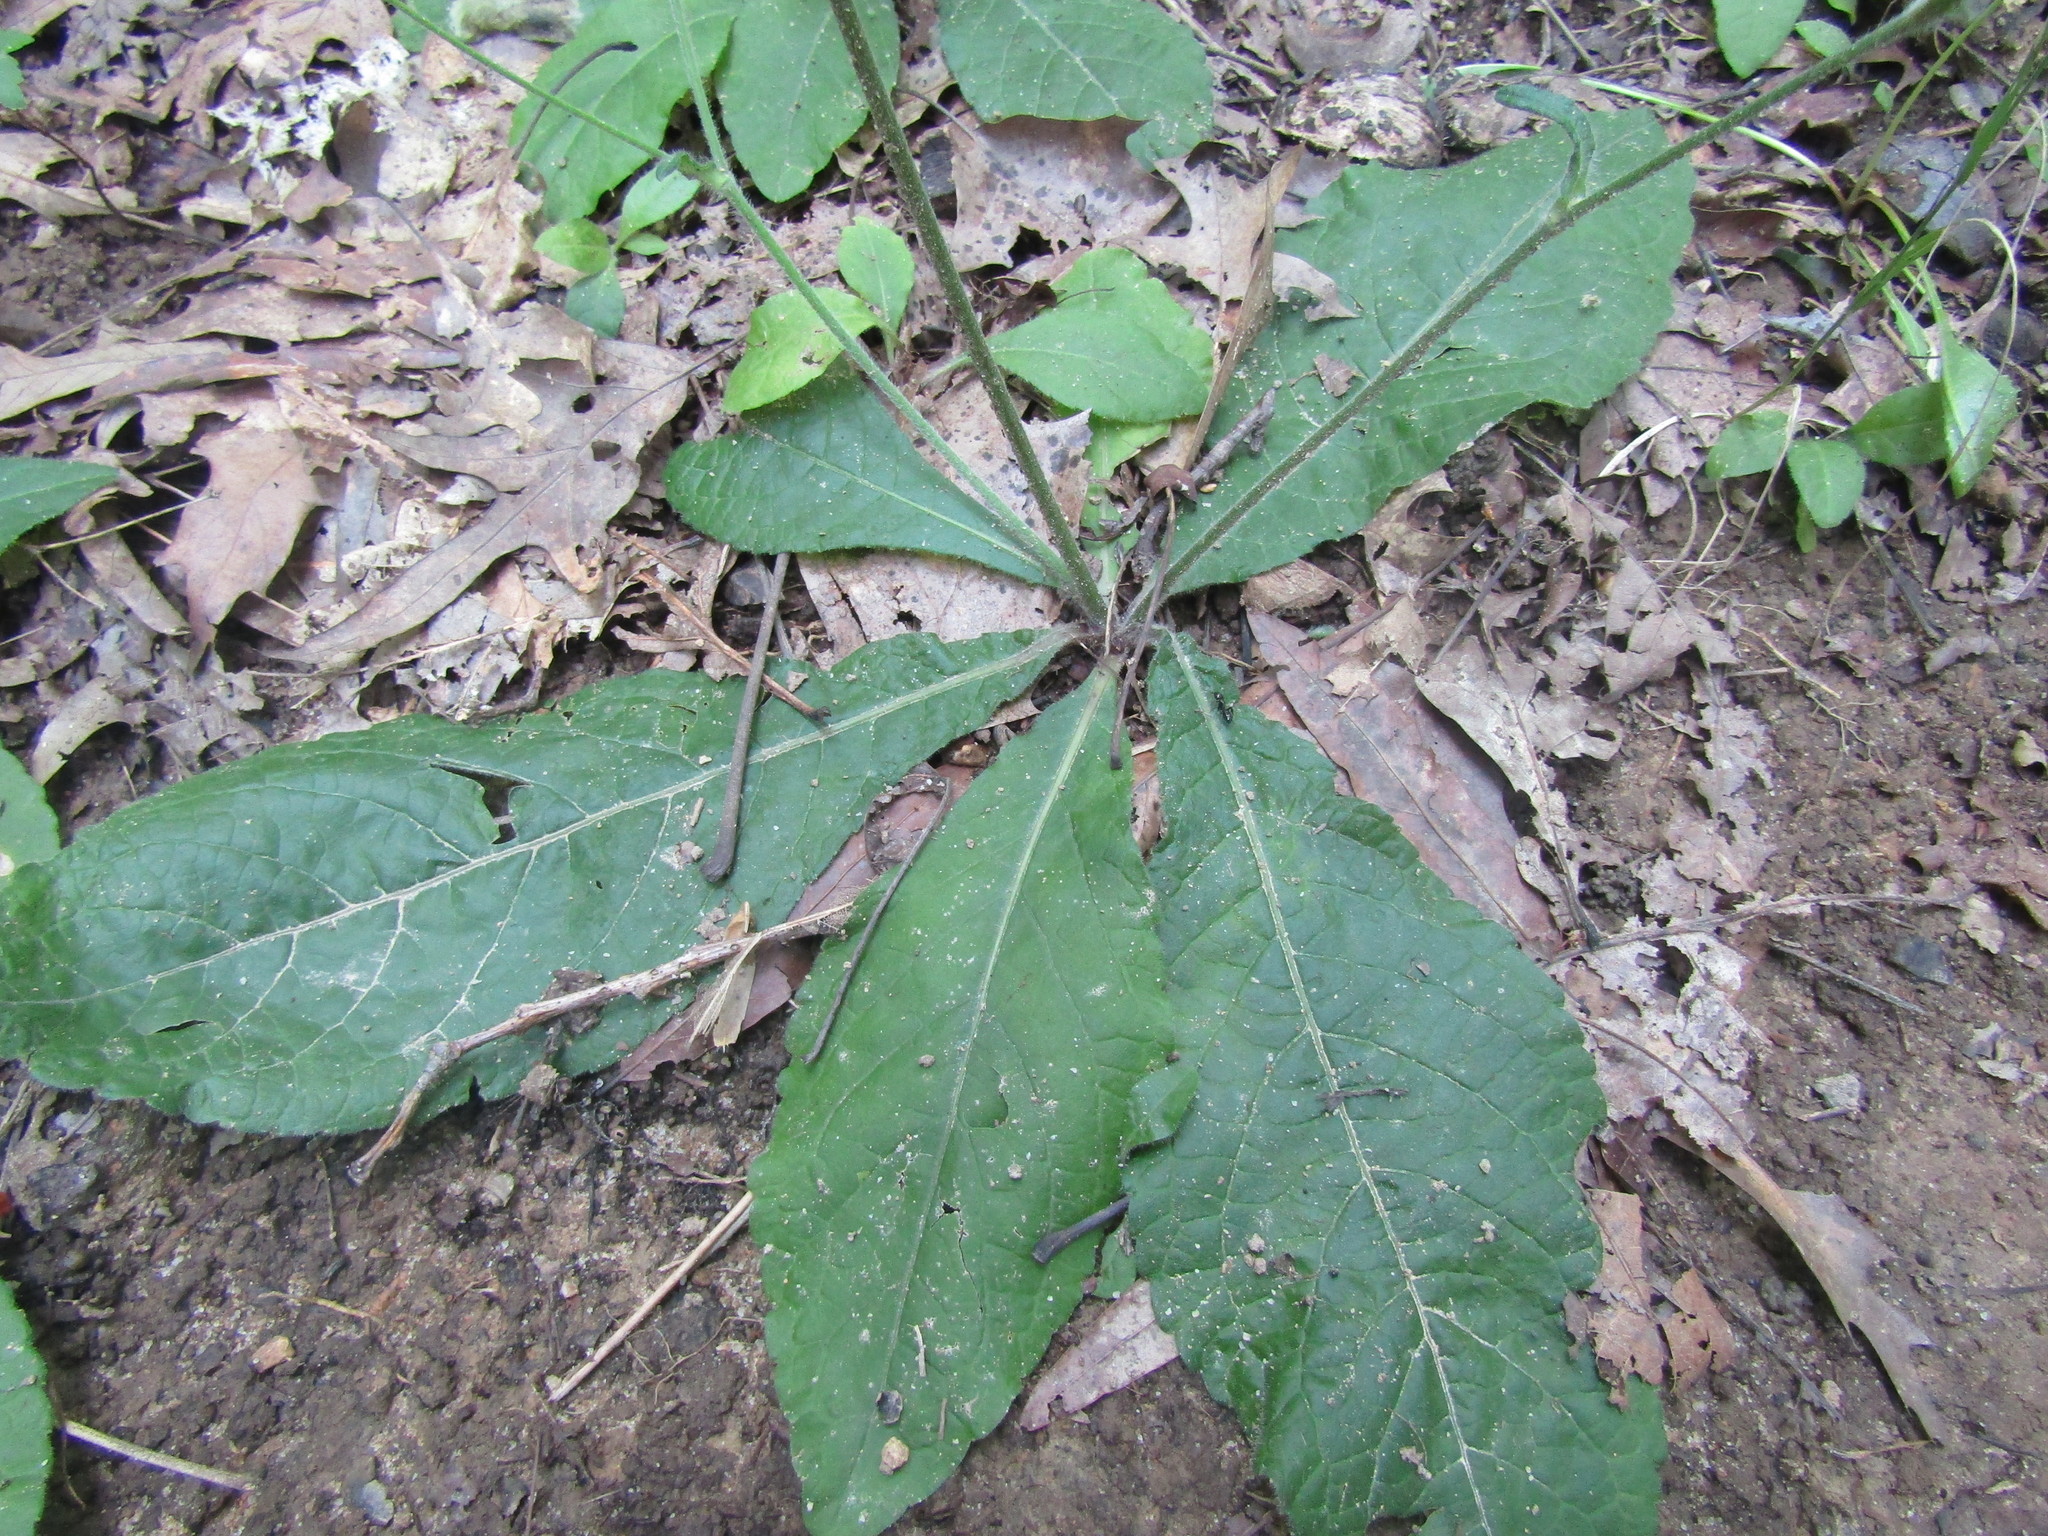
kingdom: Plantae
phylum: Tracheophyta
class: Magnoliopsida
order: Asterales
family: Asteraceae
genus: Elephantopus
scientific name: Elephantopus tomentosus
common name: Tobacco-weed
